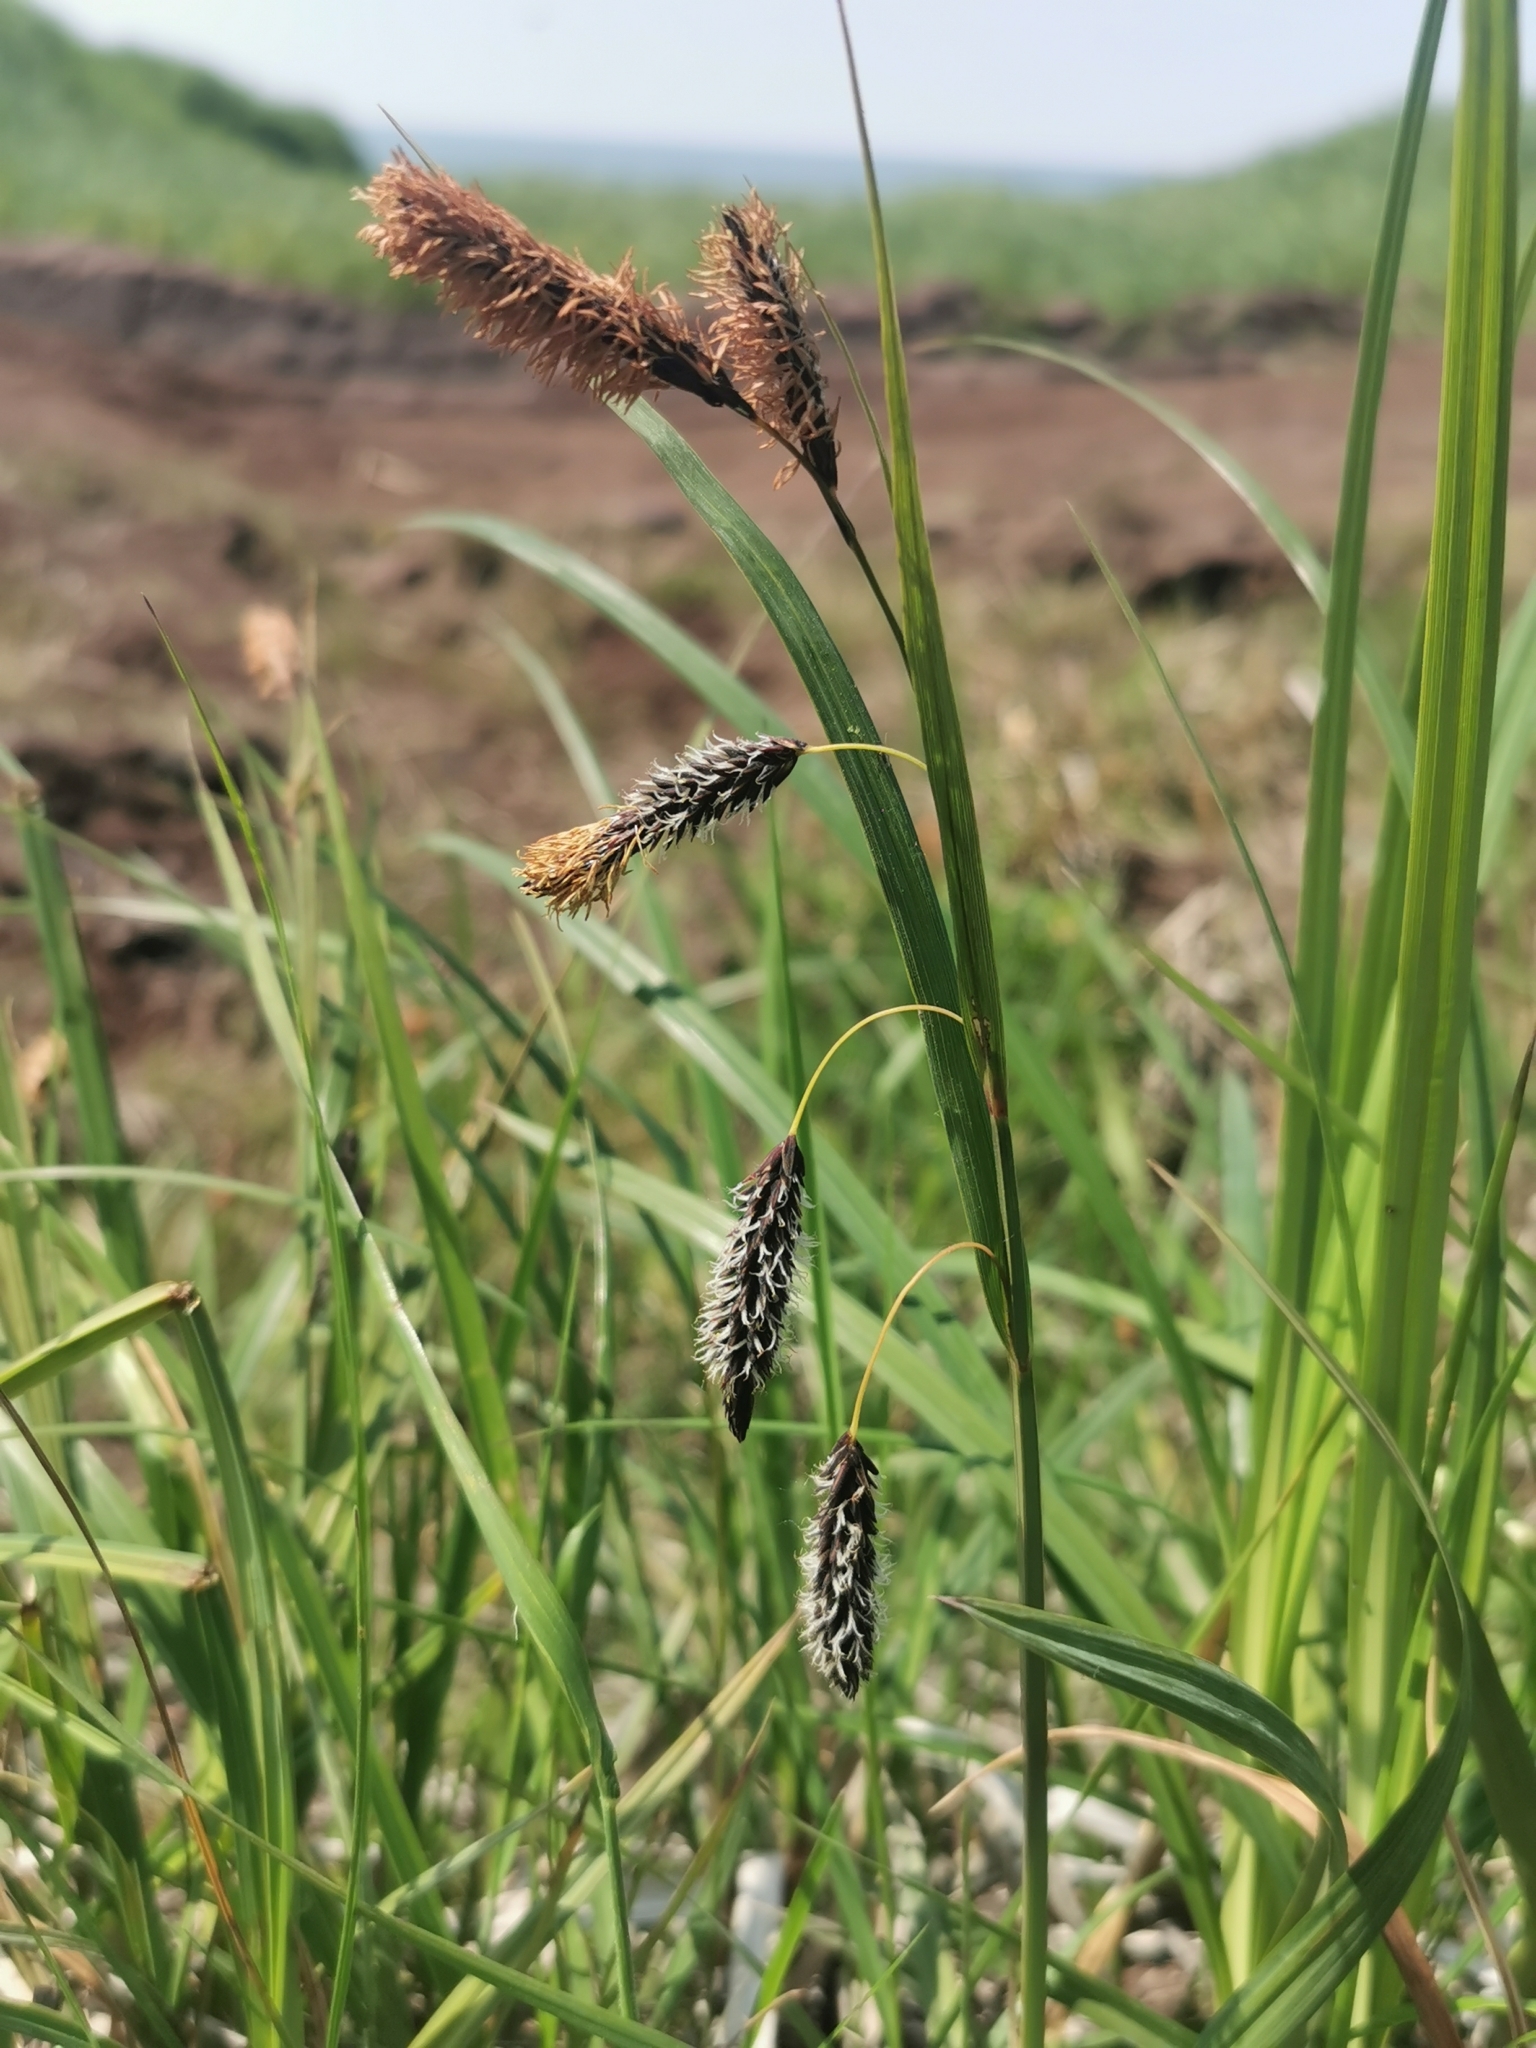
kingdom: Plantae
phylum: Tracheophyta
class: Liliopsida
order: Poales
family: Cyperaceae
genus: Carex
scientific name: Carex scita
